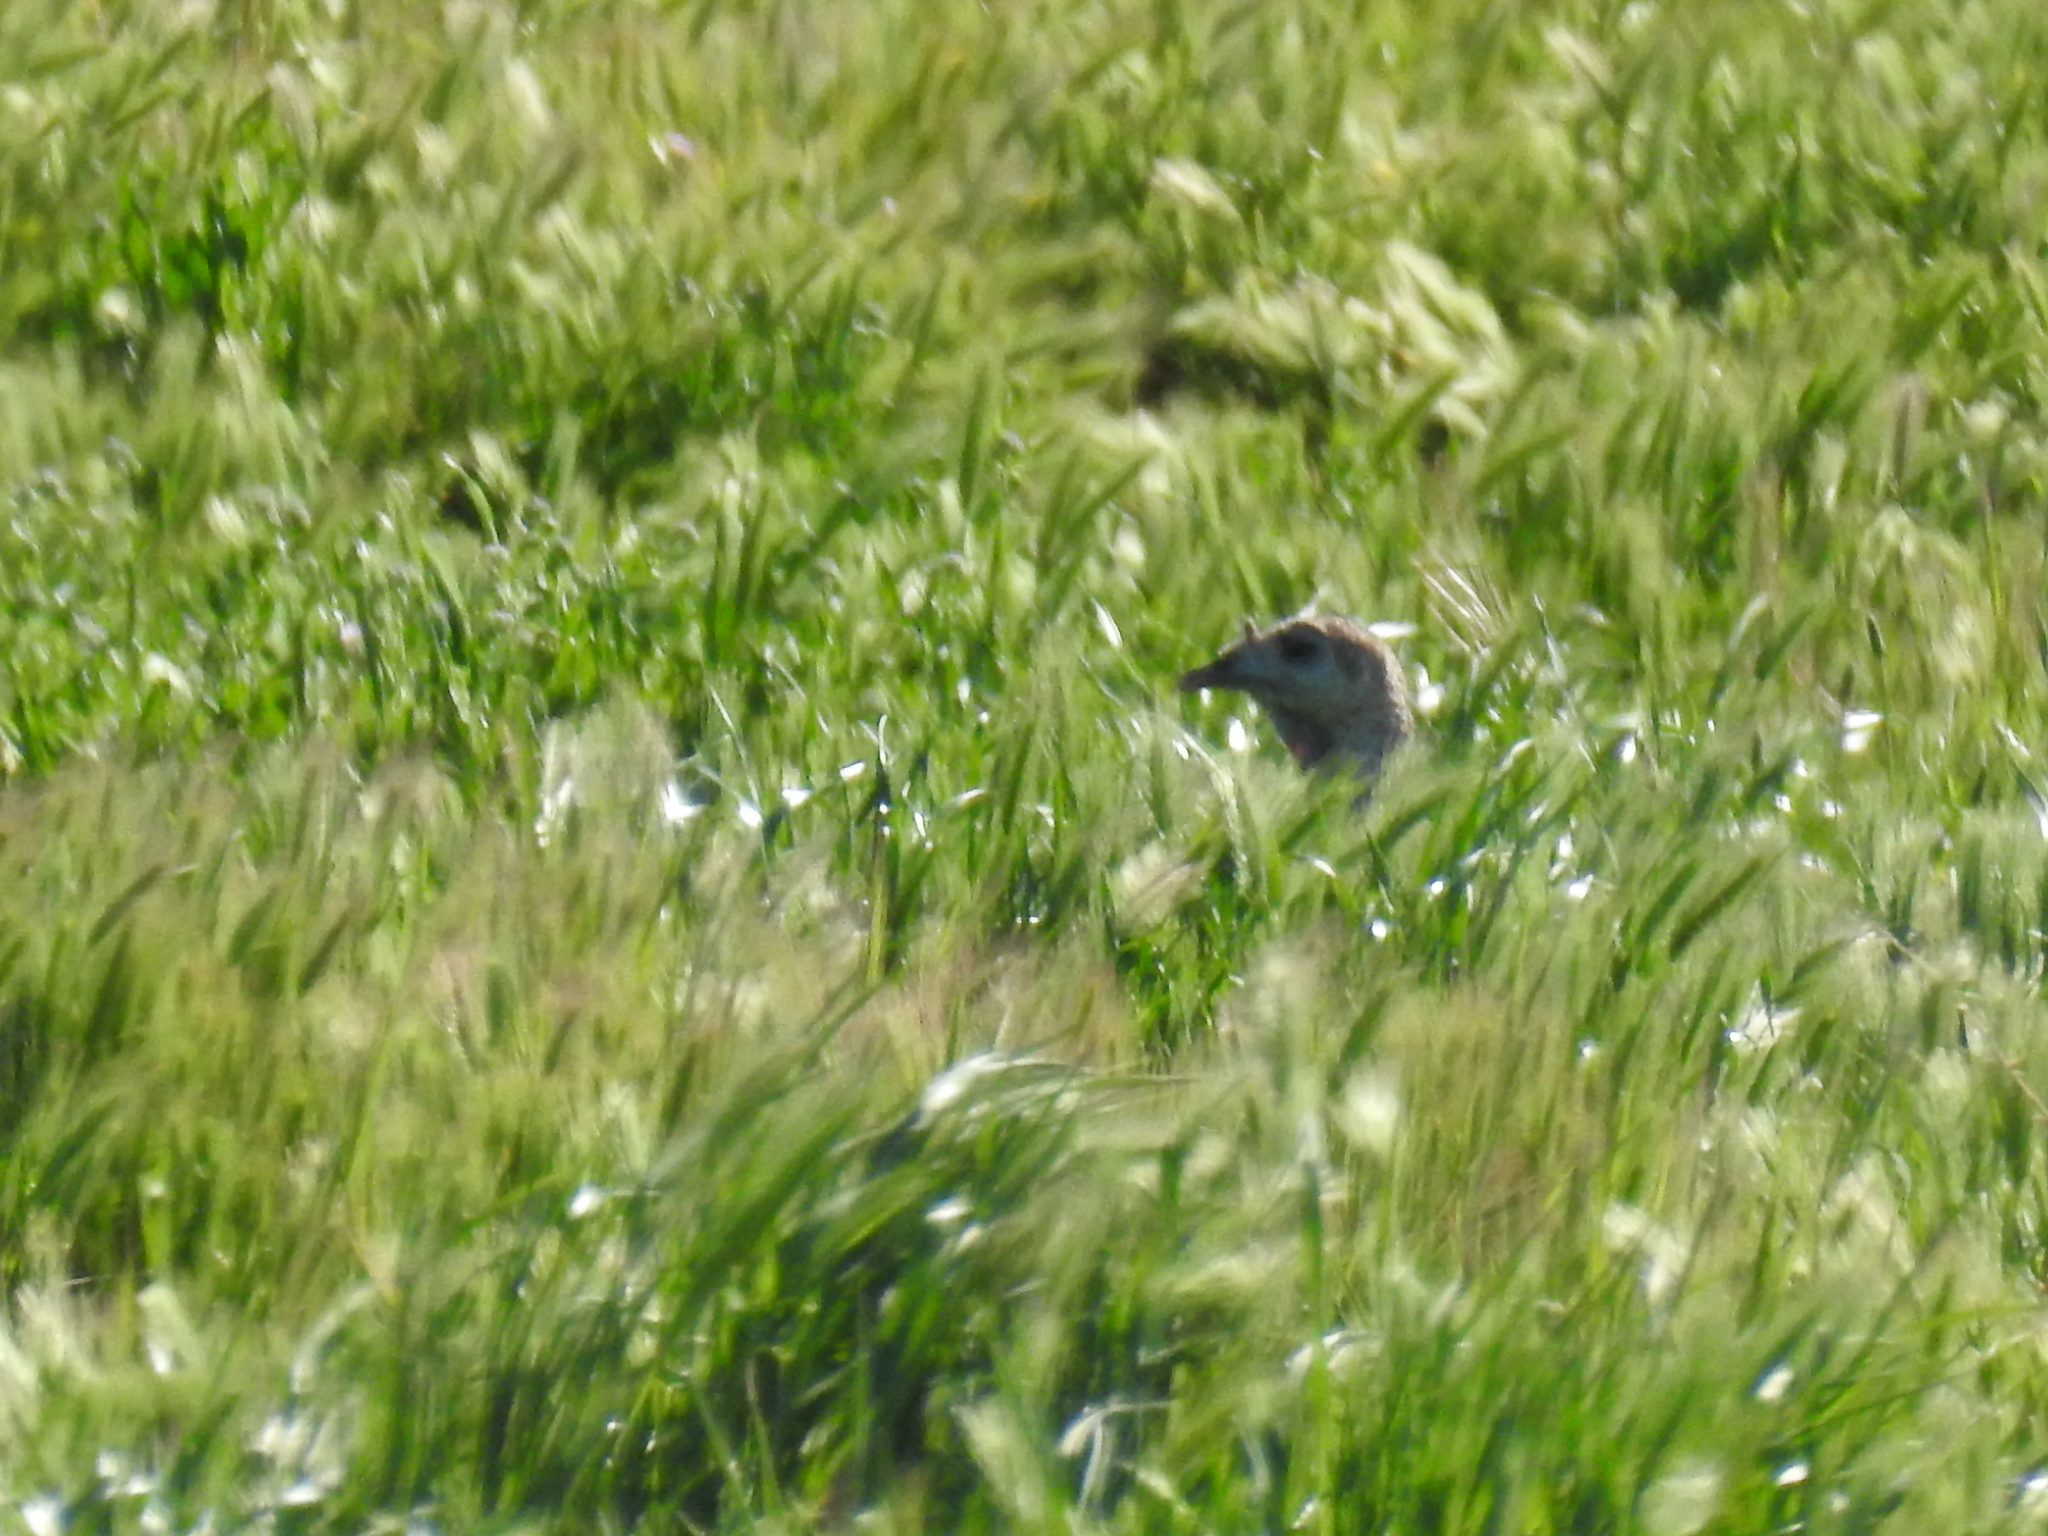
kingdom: Animalia
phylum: Chordata
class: Aves
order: Galliformes
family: Phasianidae
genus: Meleagris
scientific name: Meleagris gallopavo
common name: Wild turkey
